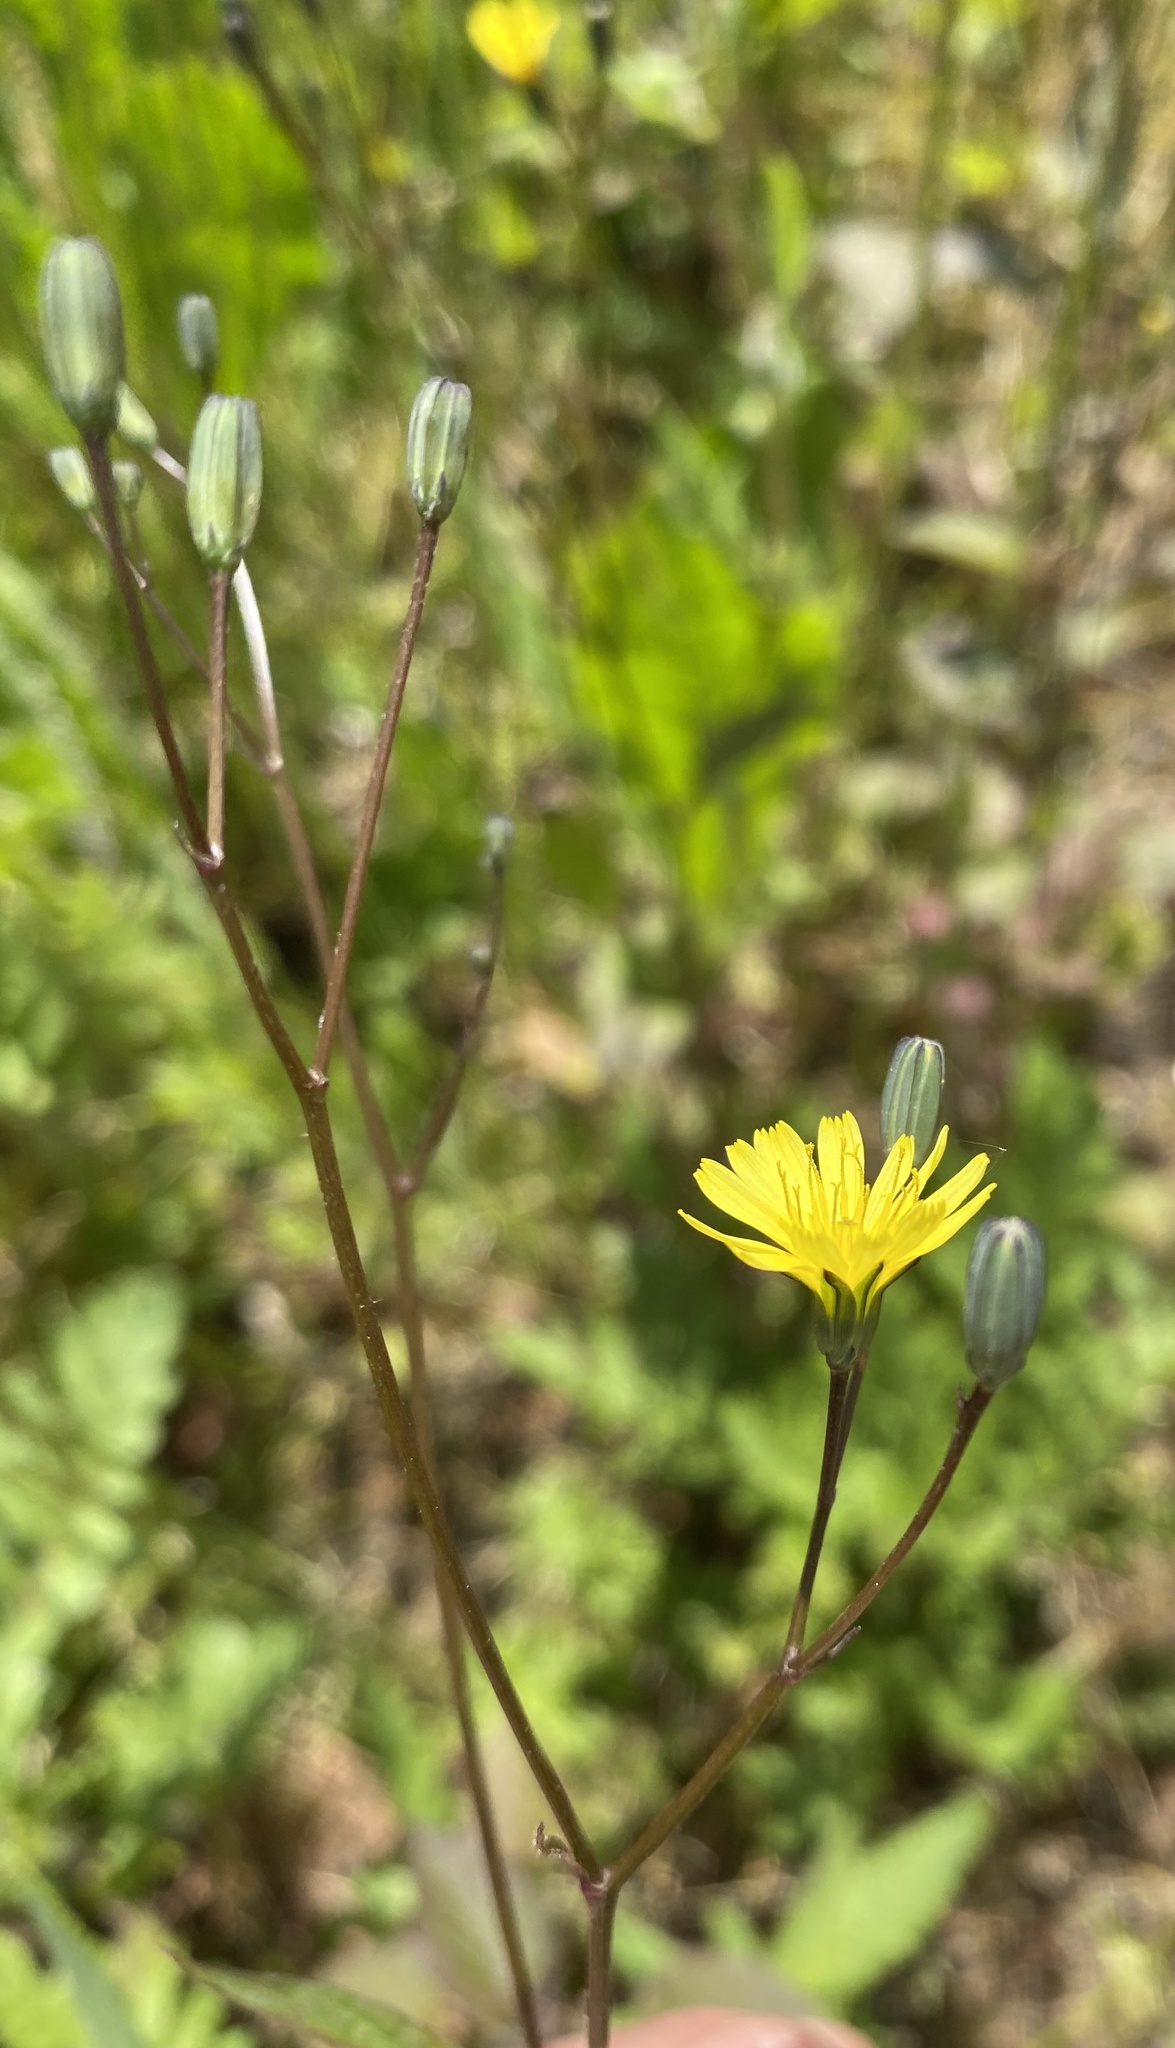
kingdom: Plantae
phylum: Tracheophyta
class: Magnoliopsida
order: Asterales
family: Asteraceae
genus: Lapsana
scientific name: Lapsana communis
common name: Nipplewort
